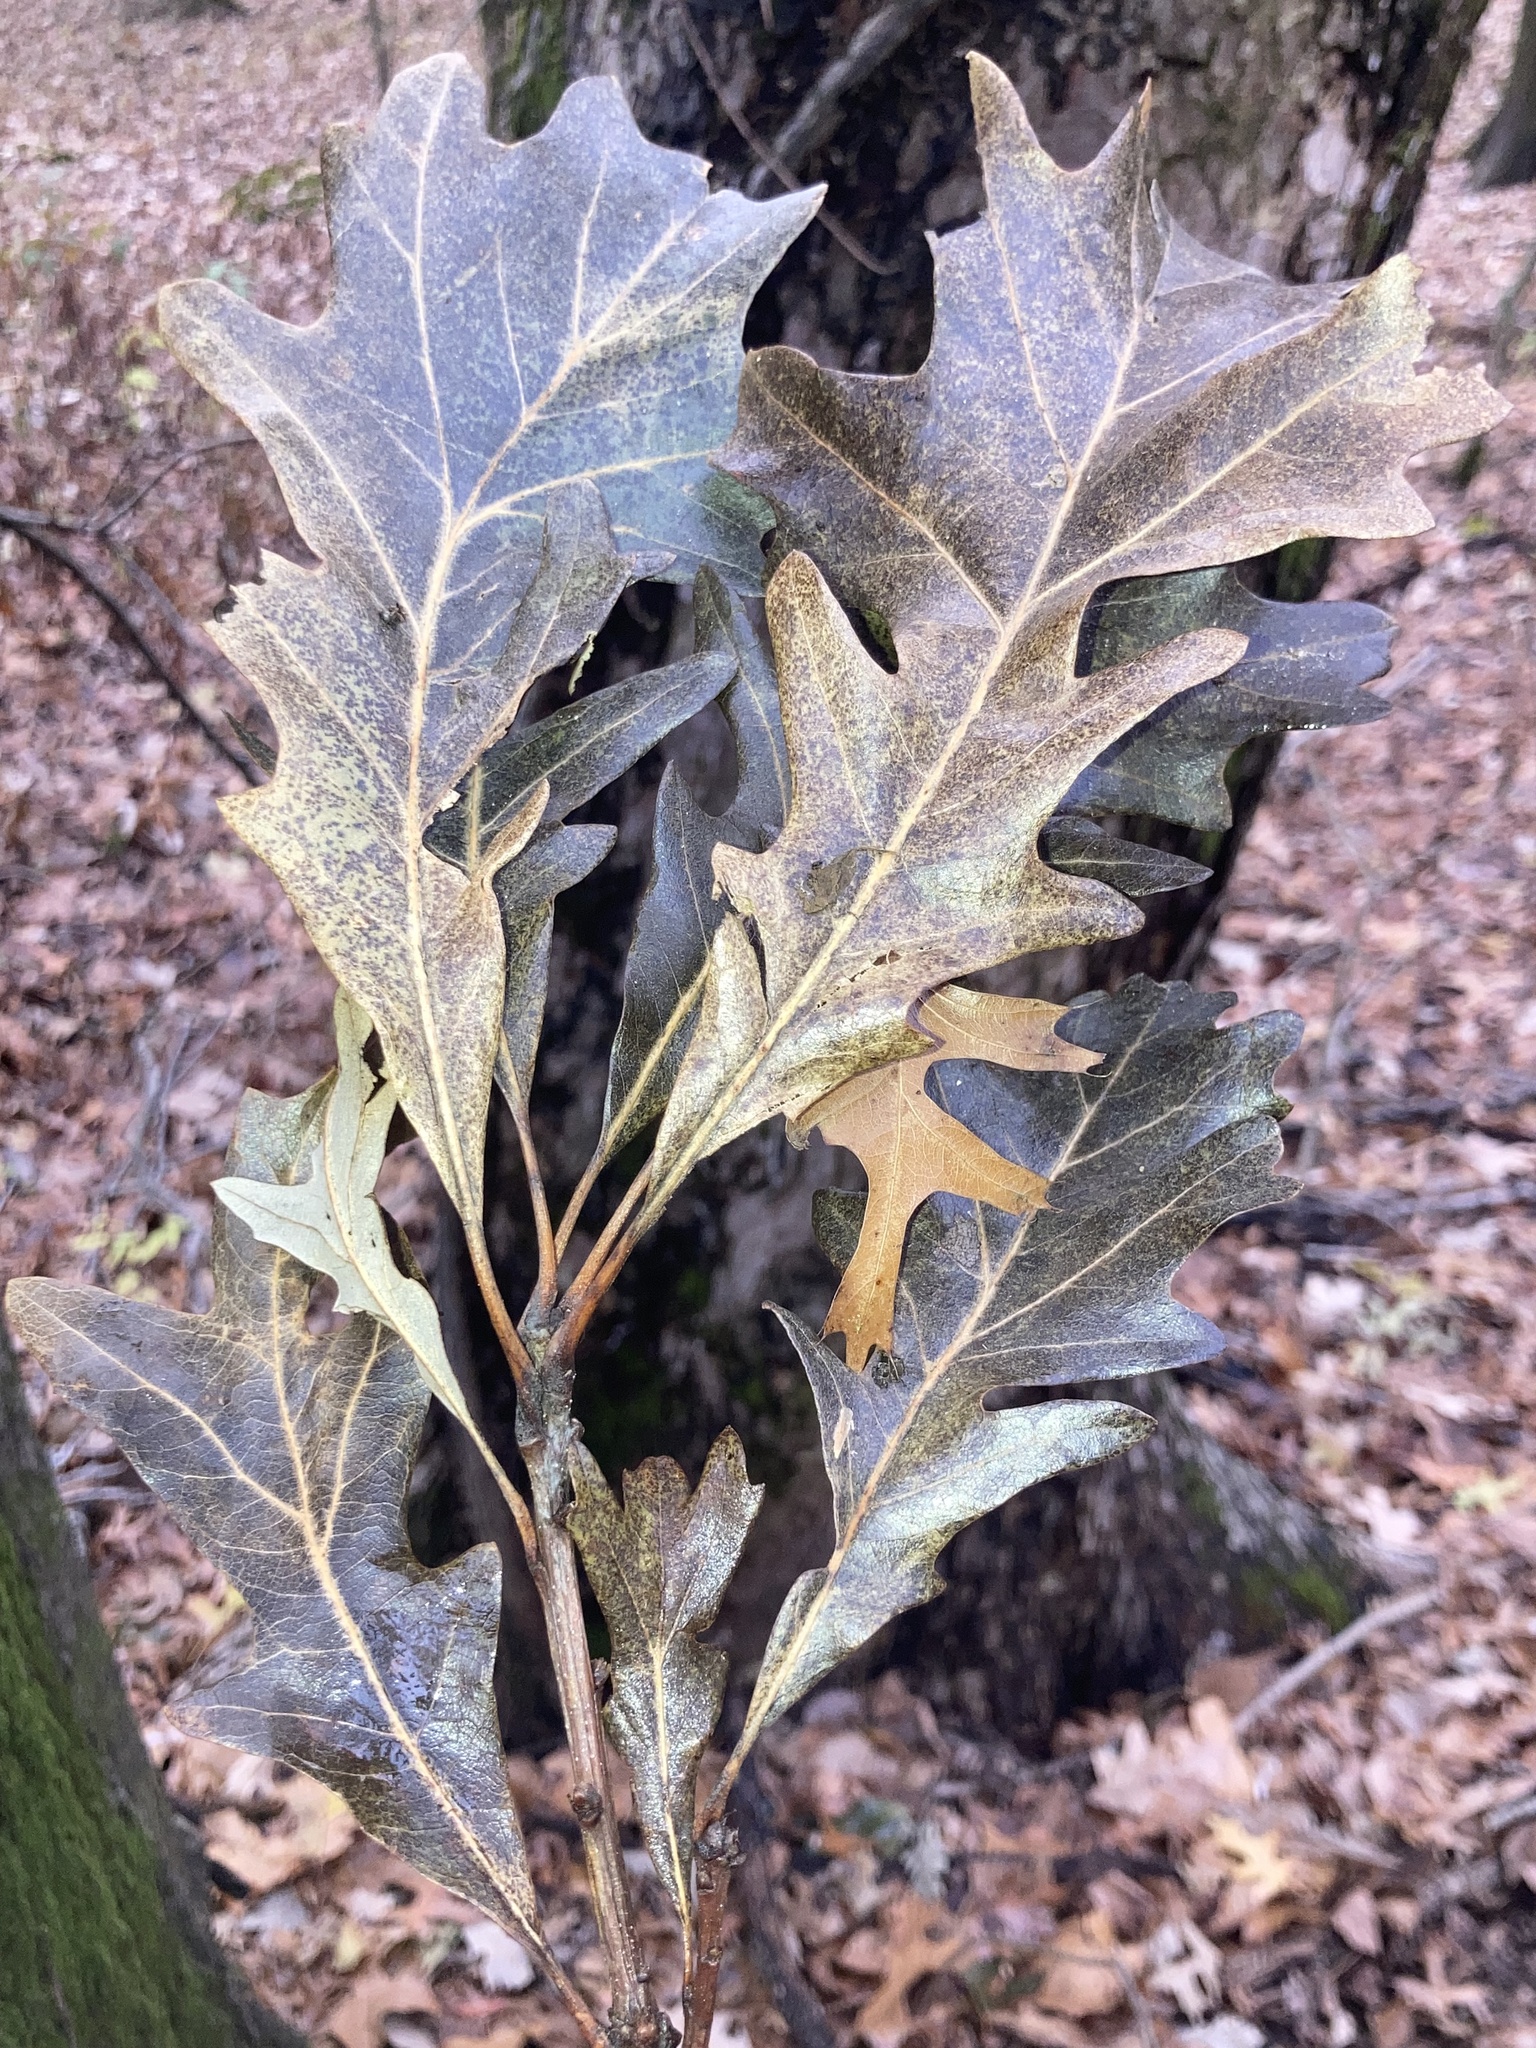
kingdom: Plantae
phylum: Tracheophyta
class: Magnoliopsida
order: Fagales
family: Fagaceae
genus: Quercus
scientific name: Quercus lyrata
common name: Overcup oak
